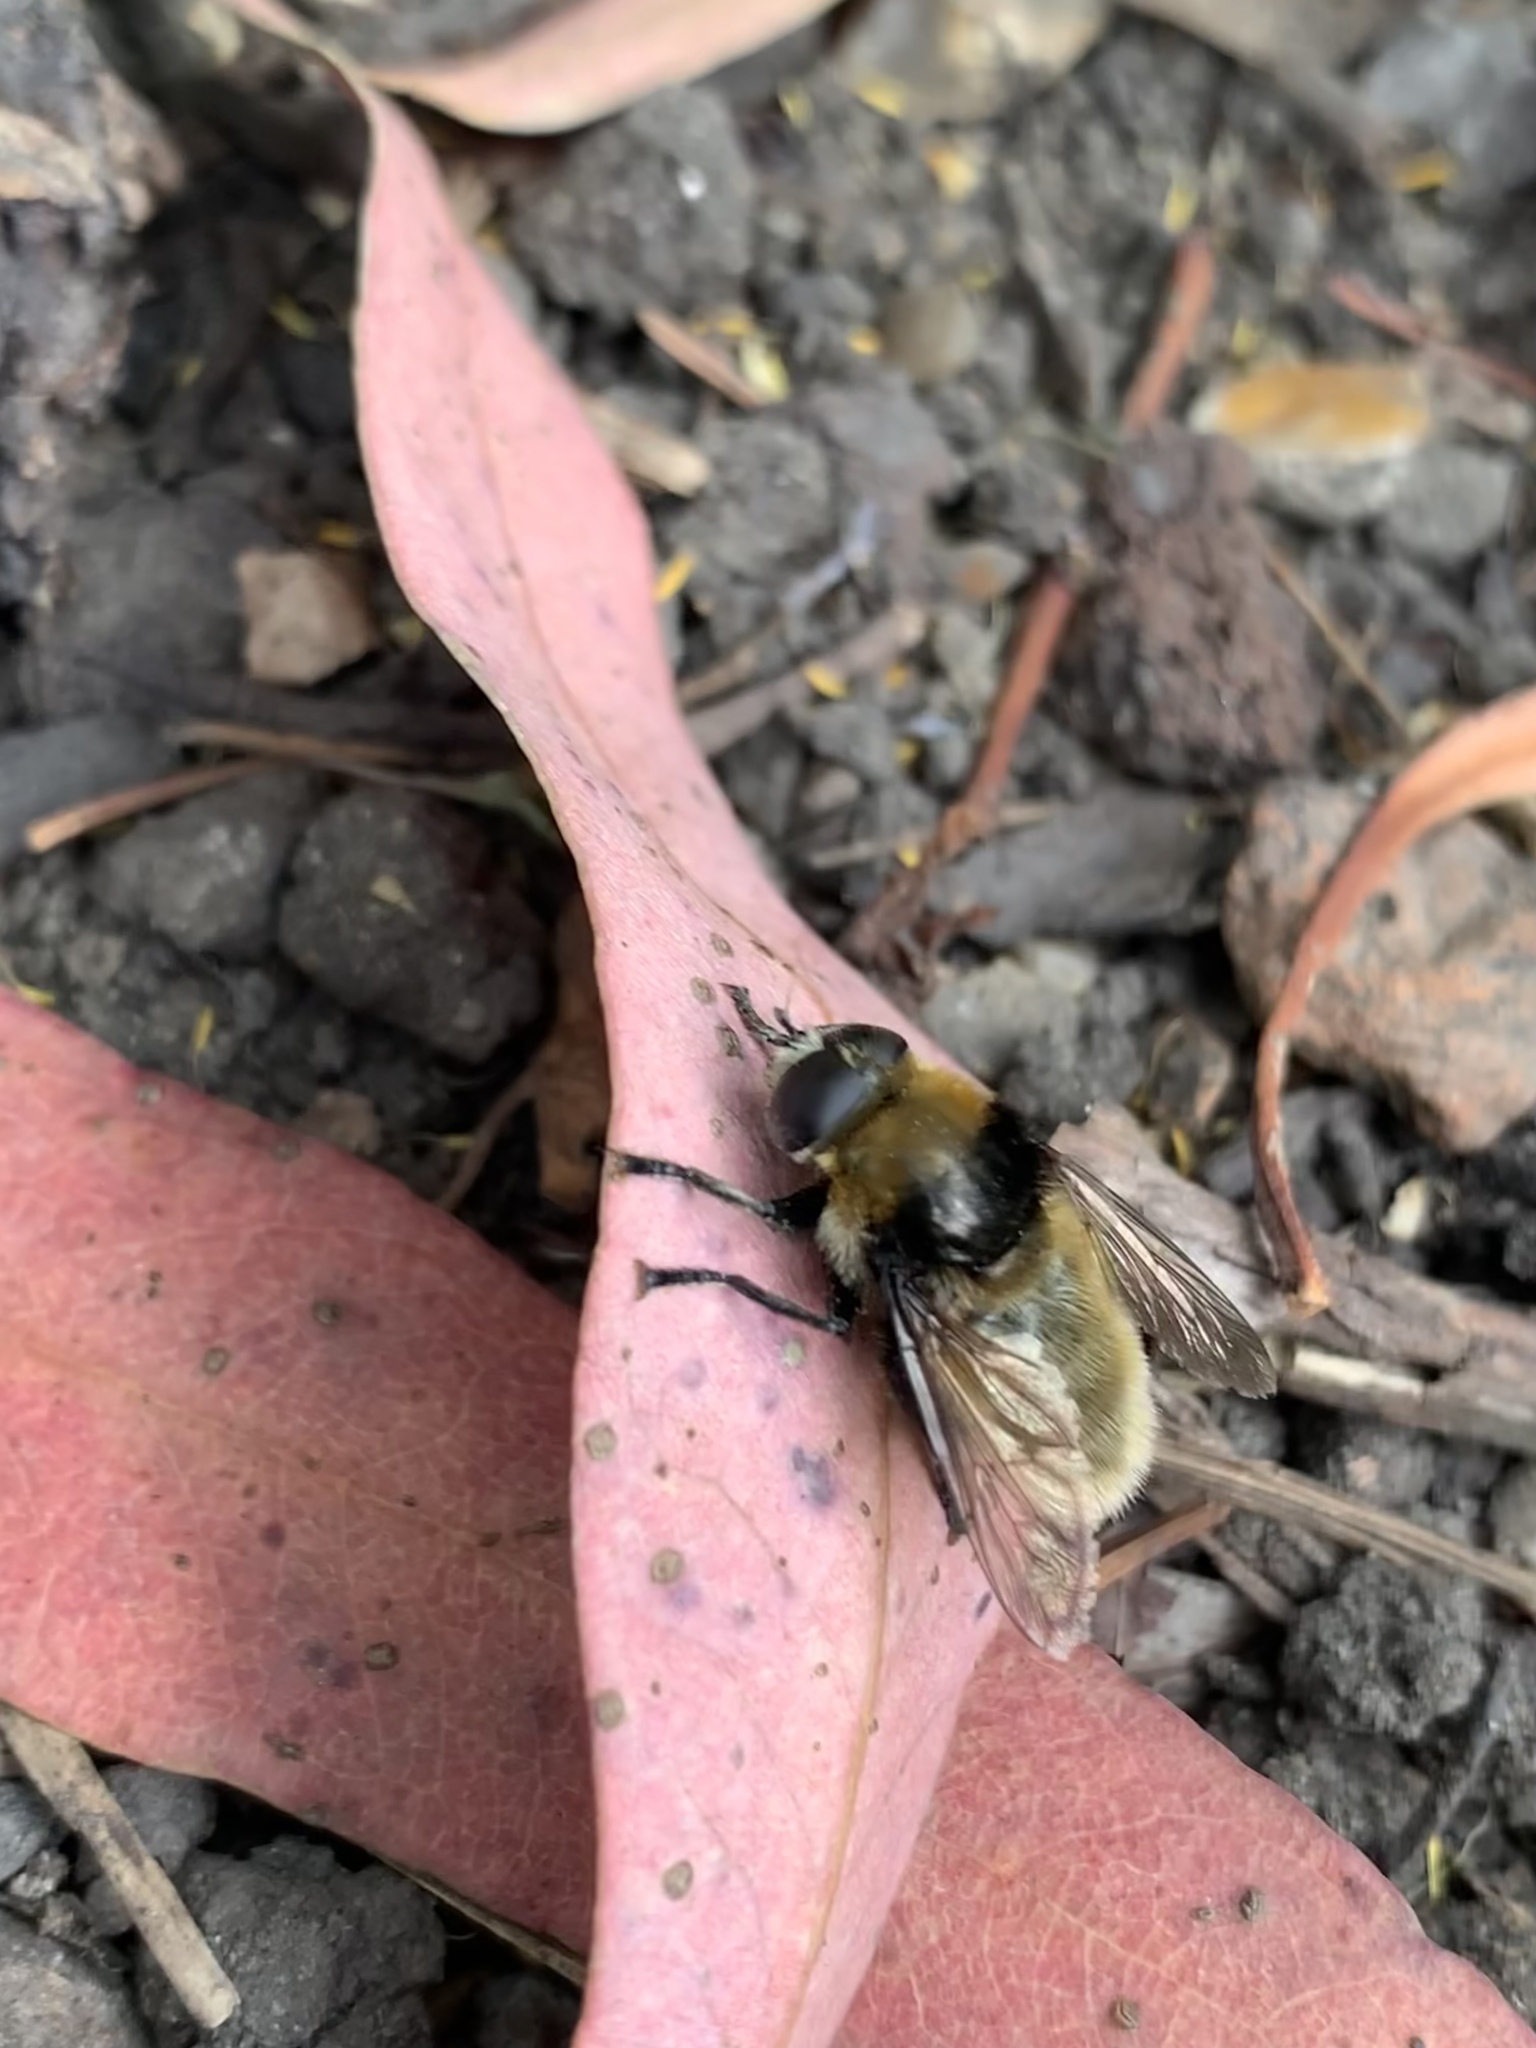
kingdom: Animalia
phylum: Arthropoda
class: Insecta
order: Diptera
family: Syrphidae
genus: Merodon
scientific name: Merodon equestris
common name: Greater bulb-fly
